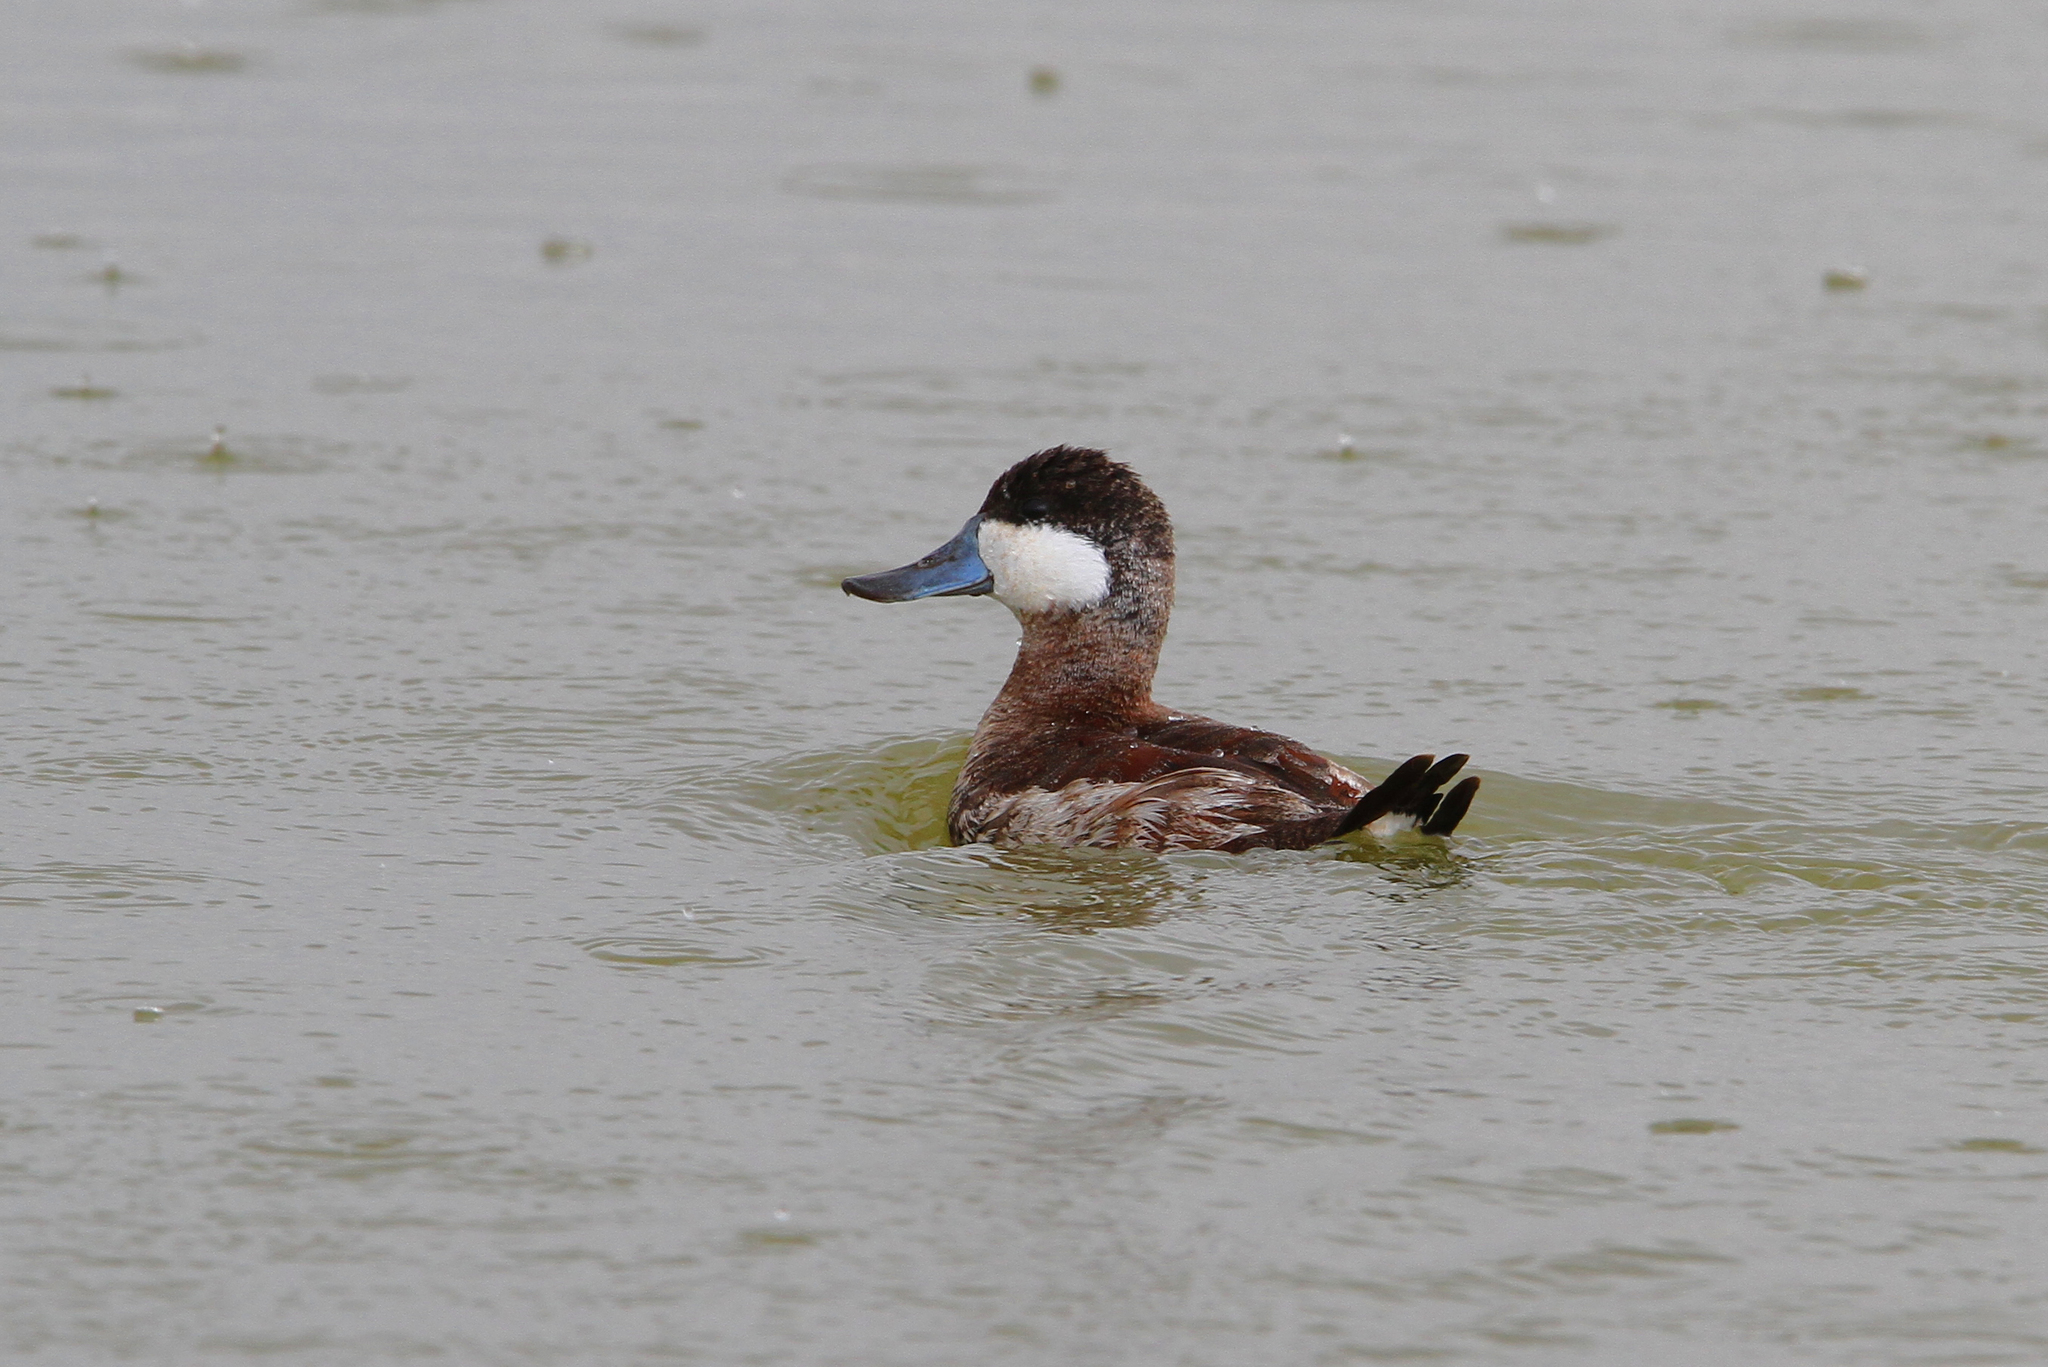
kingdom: Animalia
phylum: Chordata
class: Aves
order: Anseriformes
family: Anatidae
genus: Oxyura
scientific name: Oxyura jamaicensis
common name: Ruddy duck
